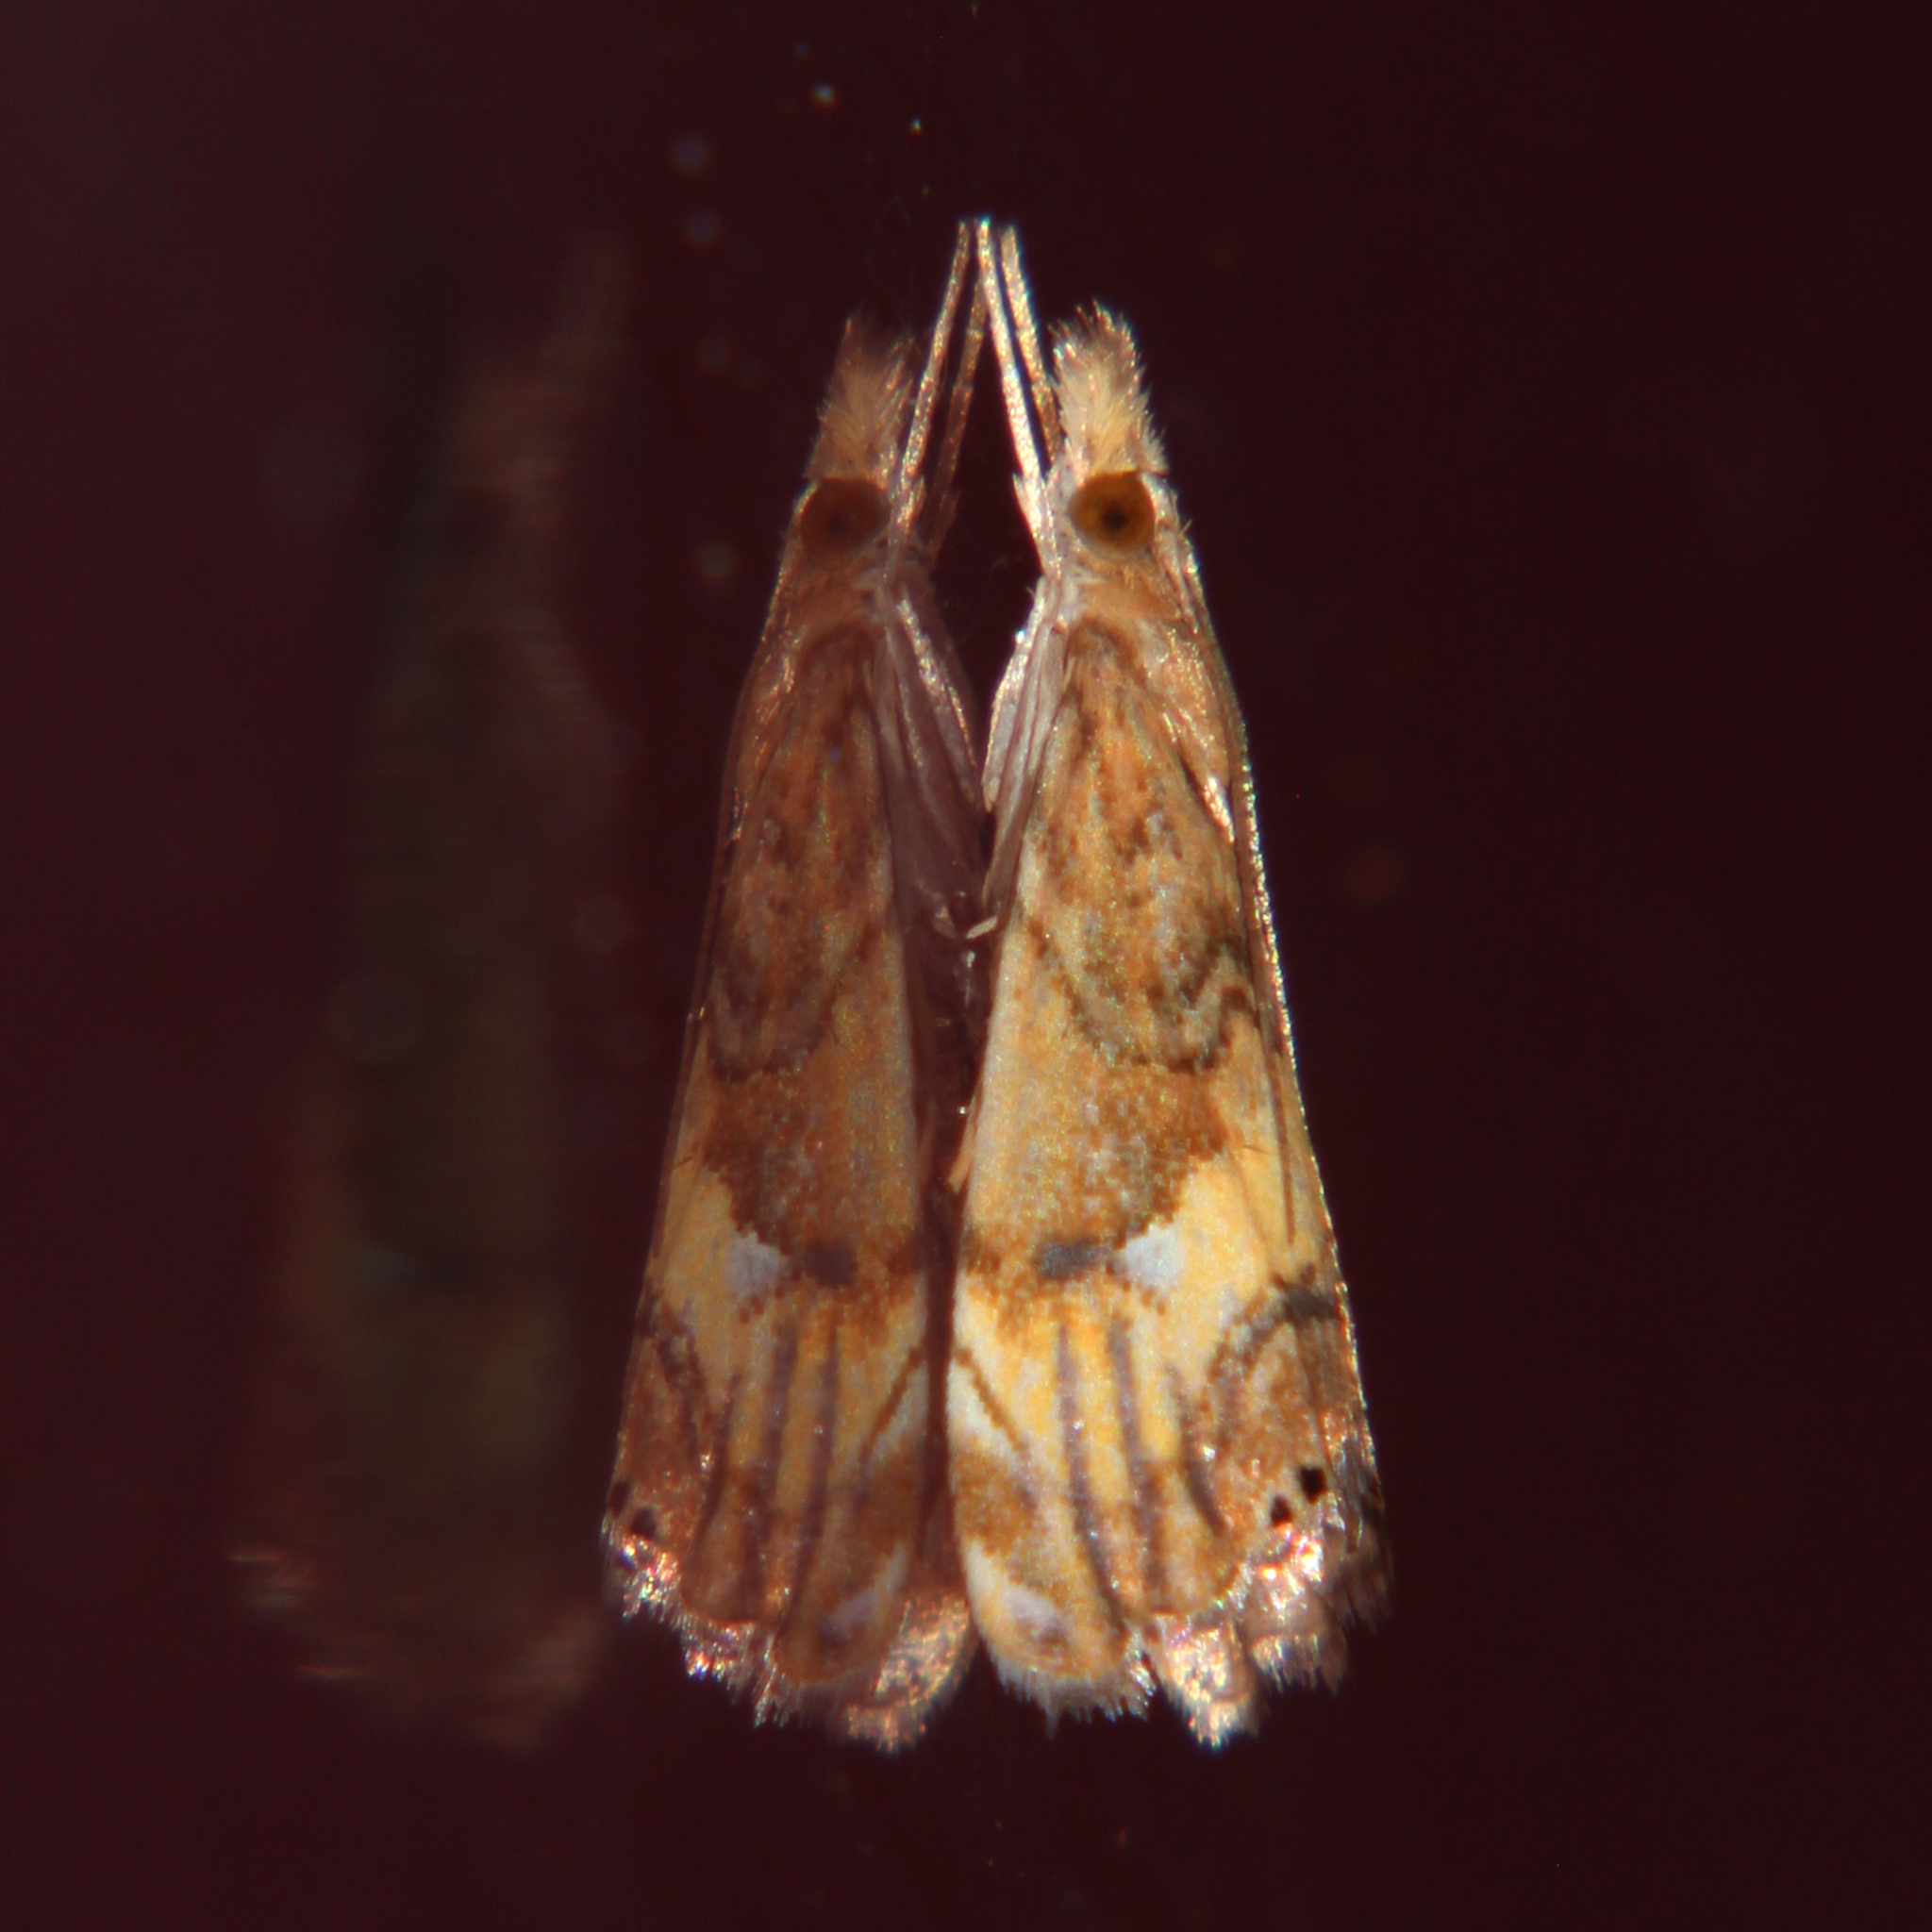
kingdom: Animalia
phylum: Arthropoda
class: Insecta
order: Lepidoptera
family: Crambidae
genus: Glaucocharis
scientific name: Glaucocharis chrysochyta
